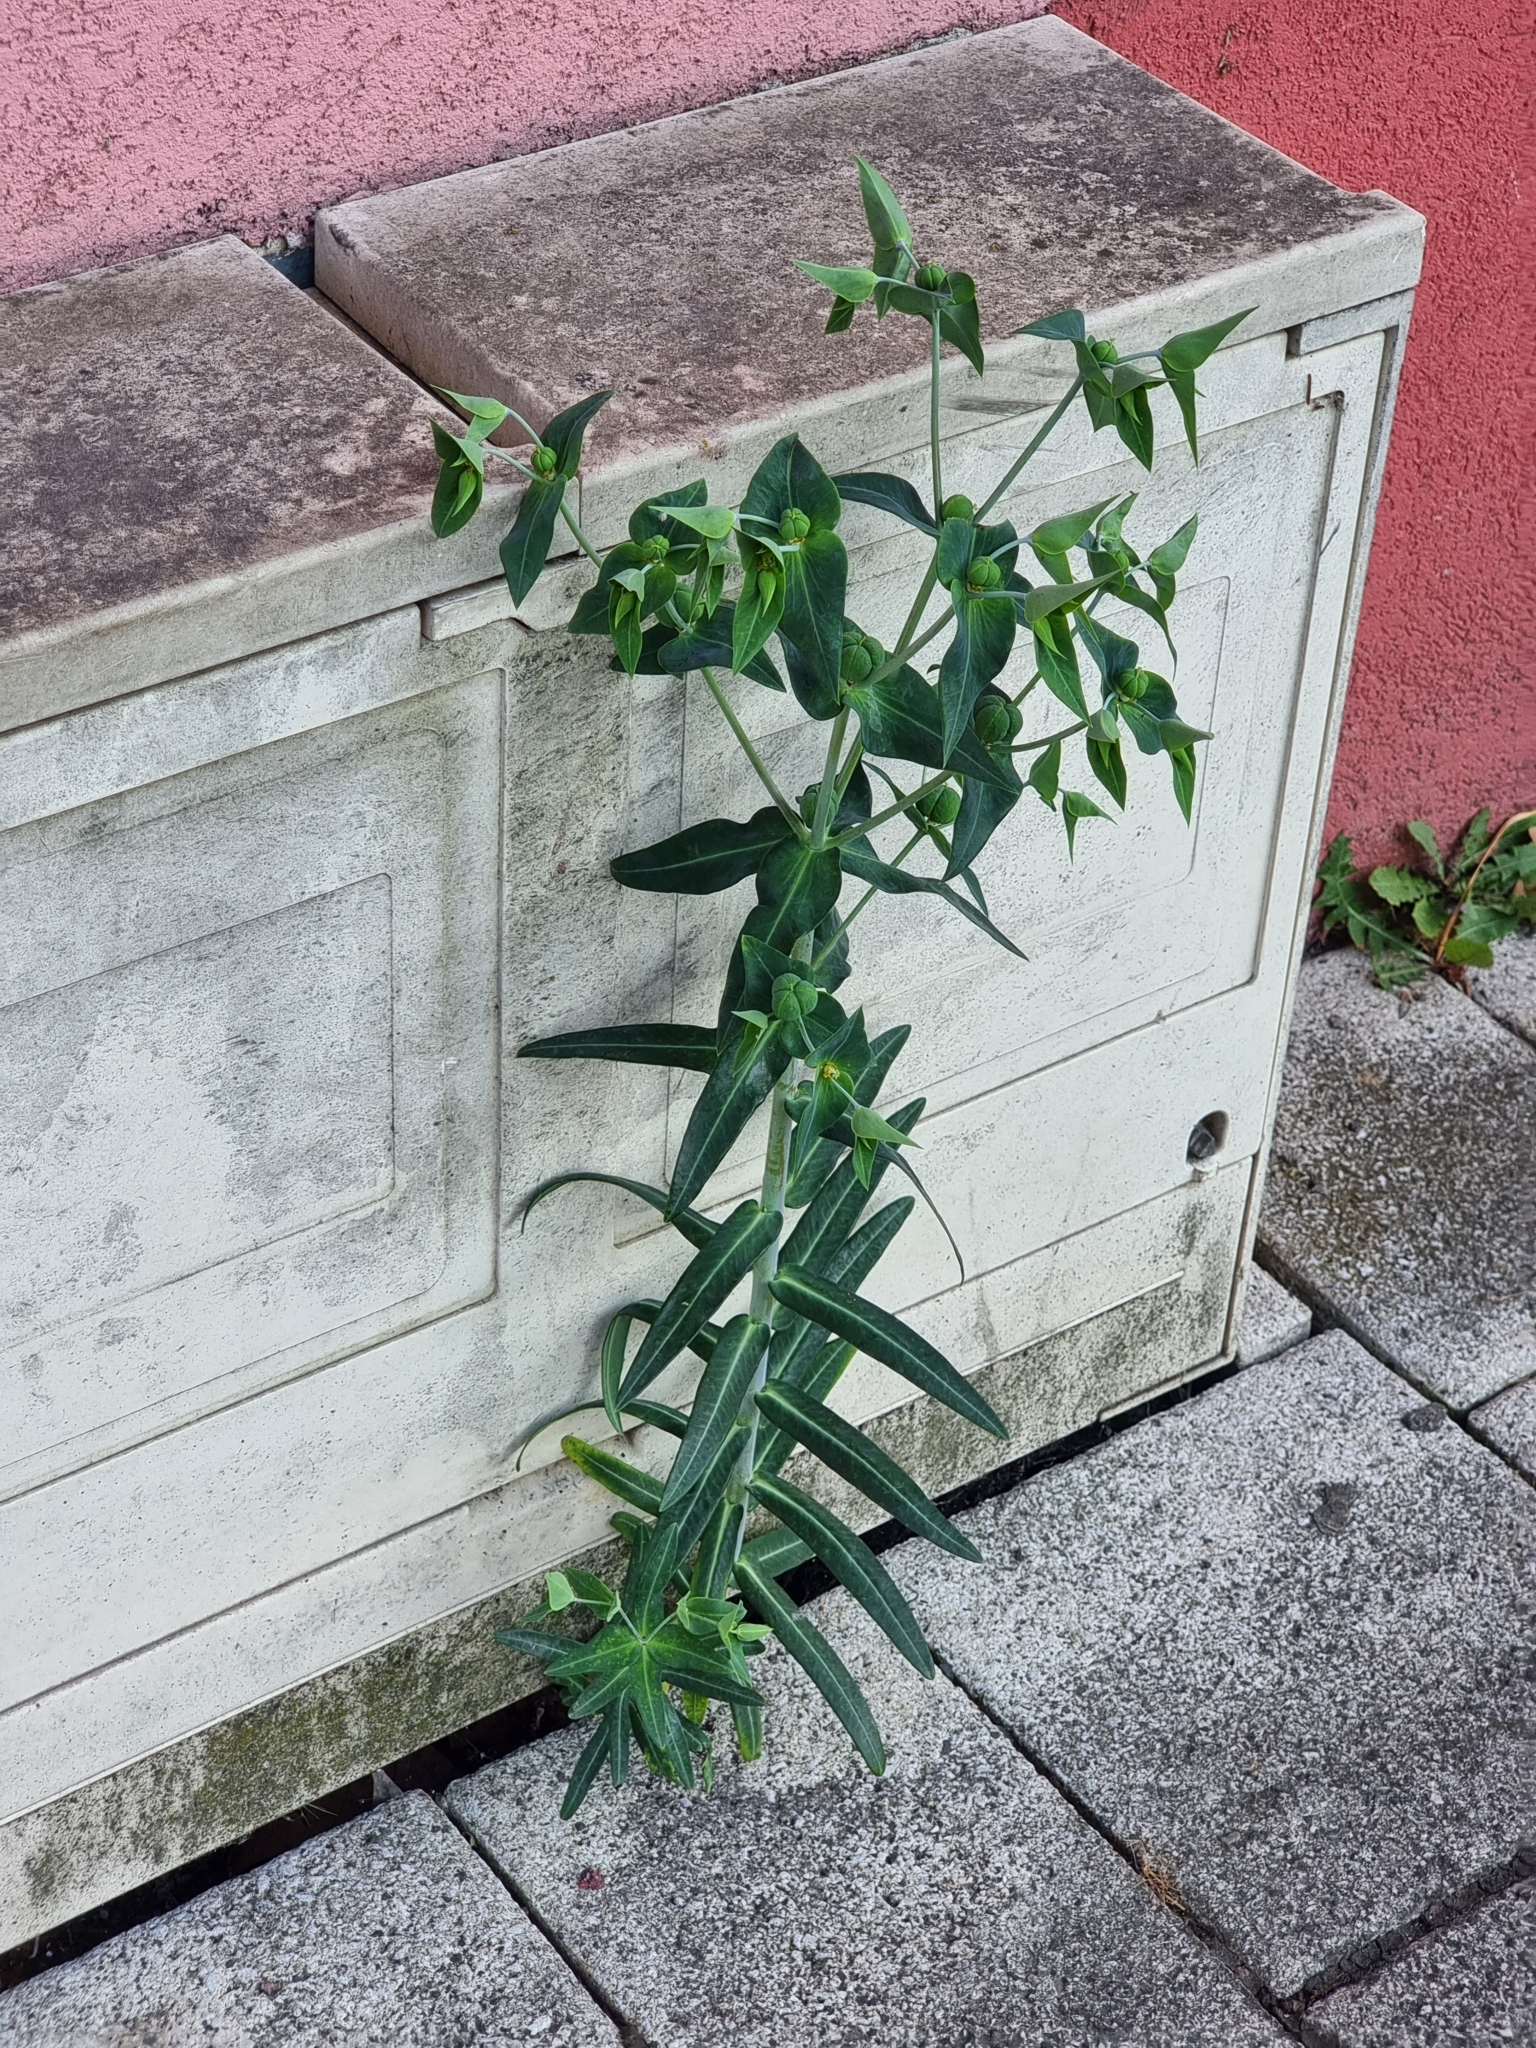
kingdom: Plantae
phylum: Tracheophyta
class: Magnoliopsida
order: Malpighiales
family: Euphorbiaceae
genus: Euphorbia
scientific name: Euphorbia lathyris
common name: Caper spurge
